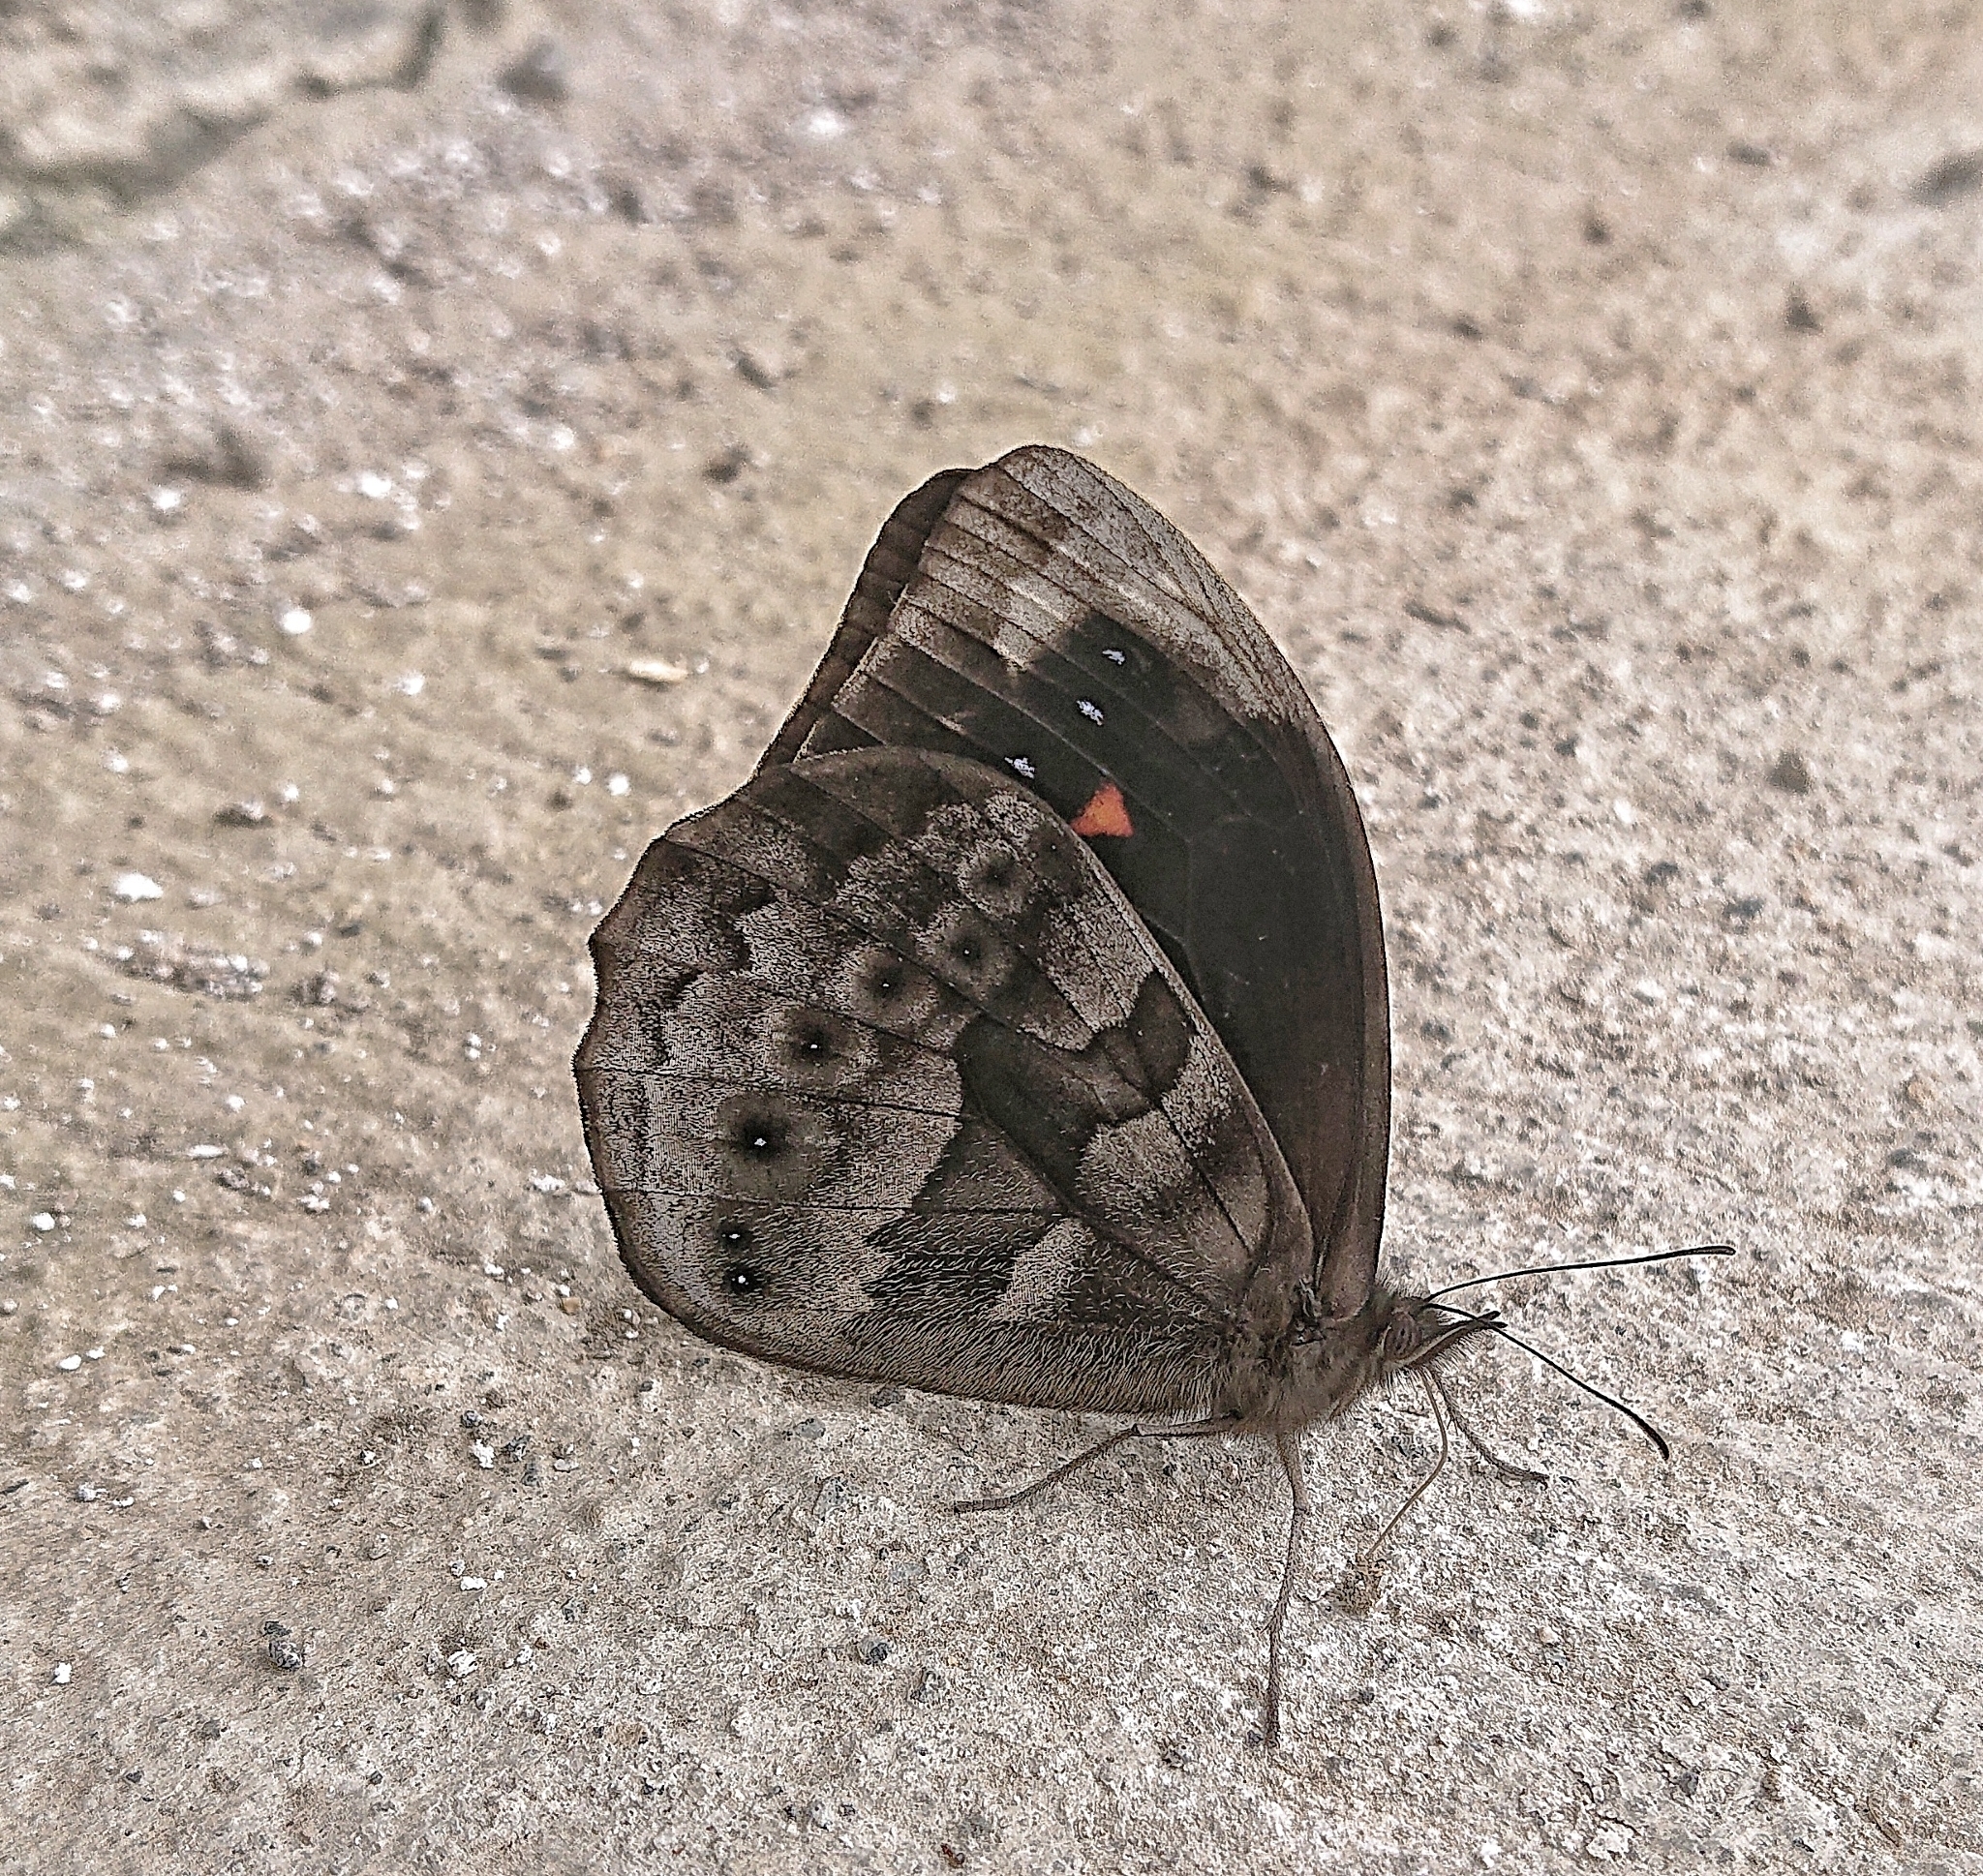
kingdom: Animalia
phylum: Arthropoda
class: Insecta
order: Lepidoptera
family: Nymphalidae
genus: Pronophila
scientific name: Pronophila orcus
